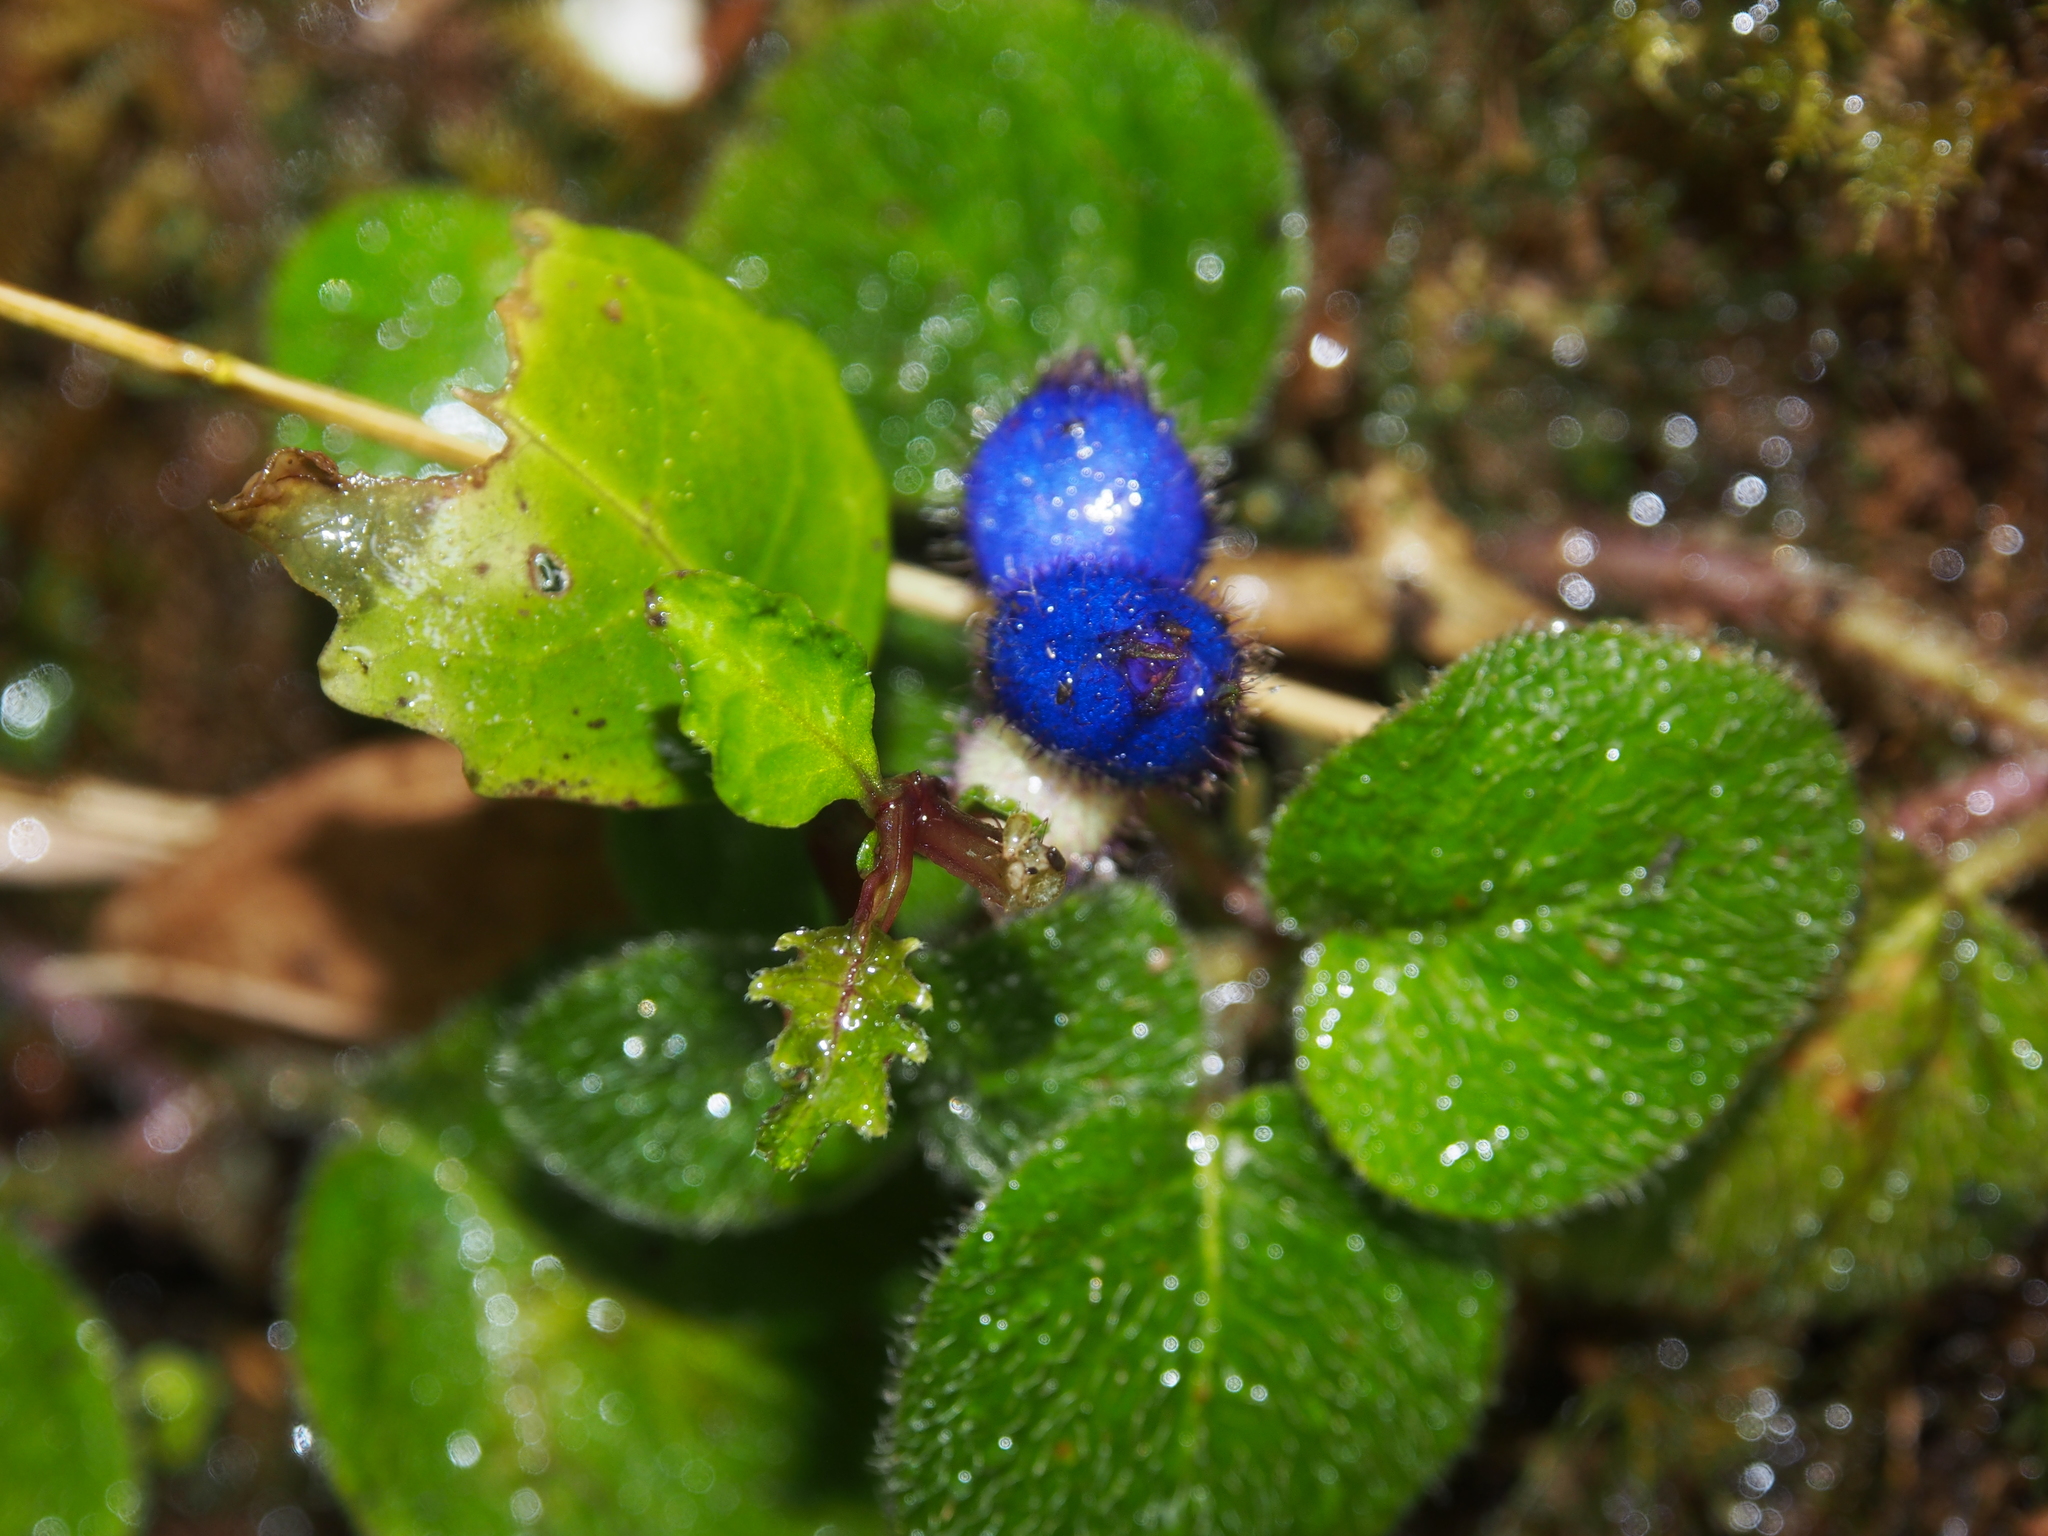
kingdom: Plantae
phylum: Tracheophyta
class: Magnoliopsida
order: Gentianales
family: Rubiaceae
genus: Coccocypselum
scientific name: Coccocypselum cordifolium
